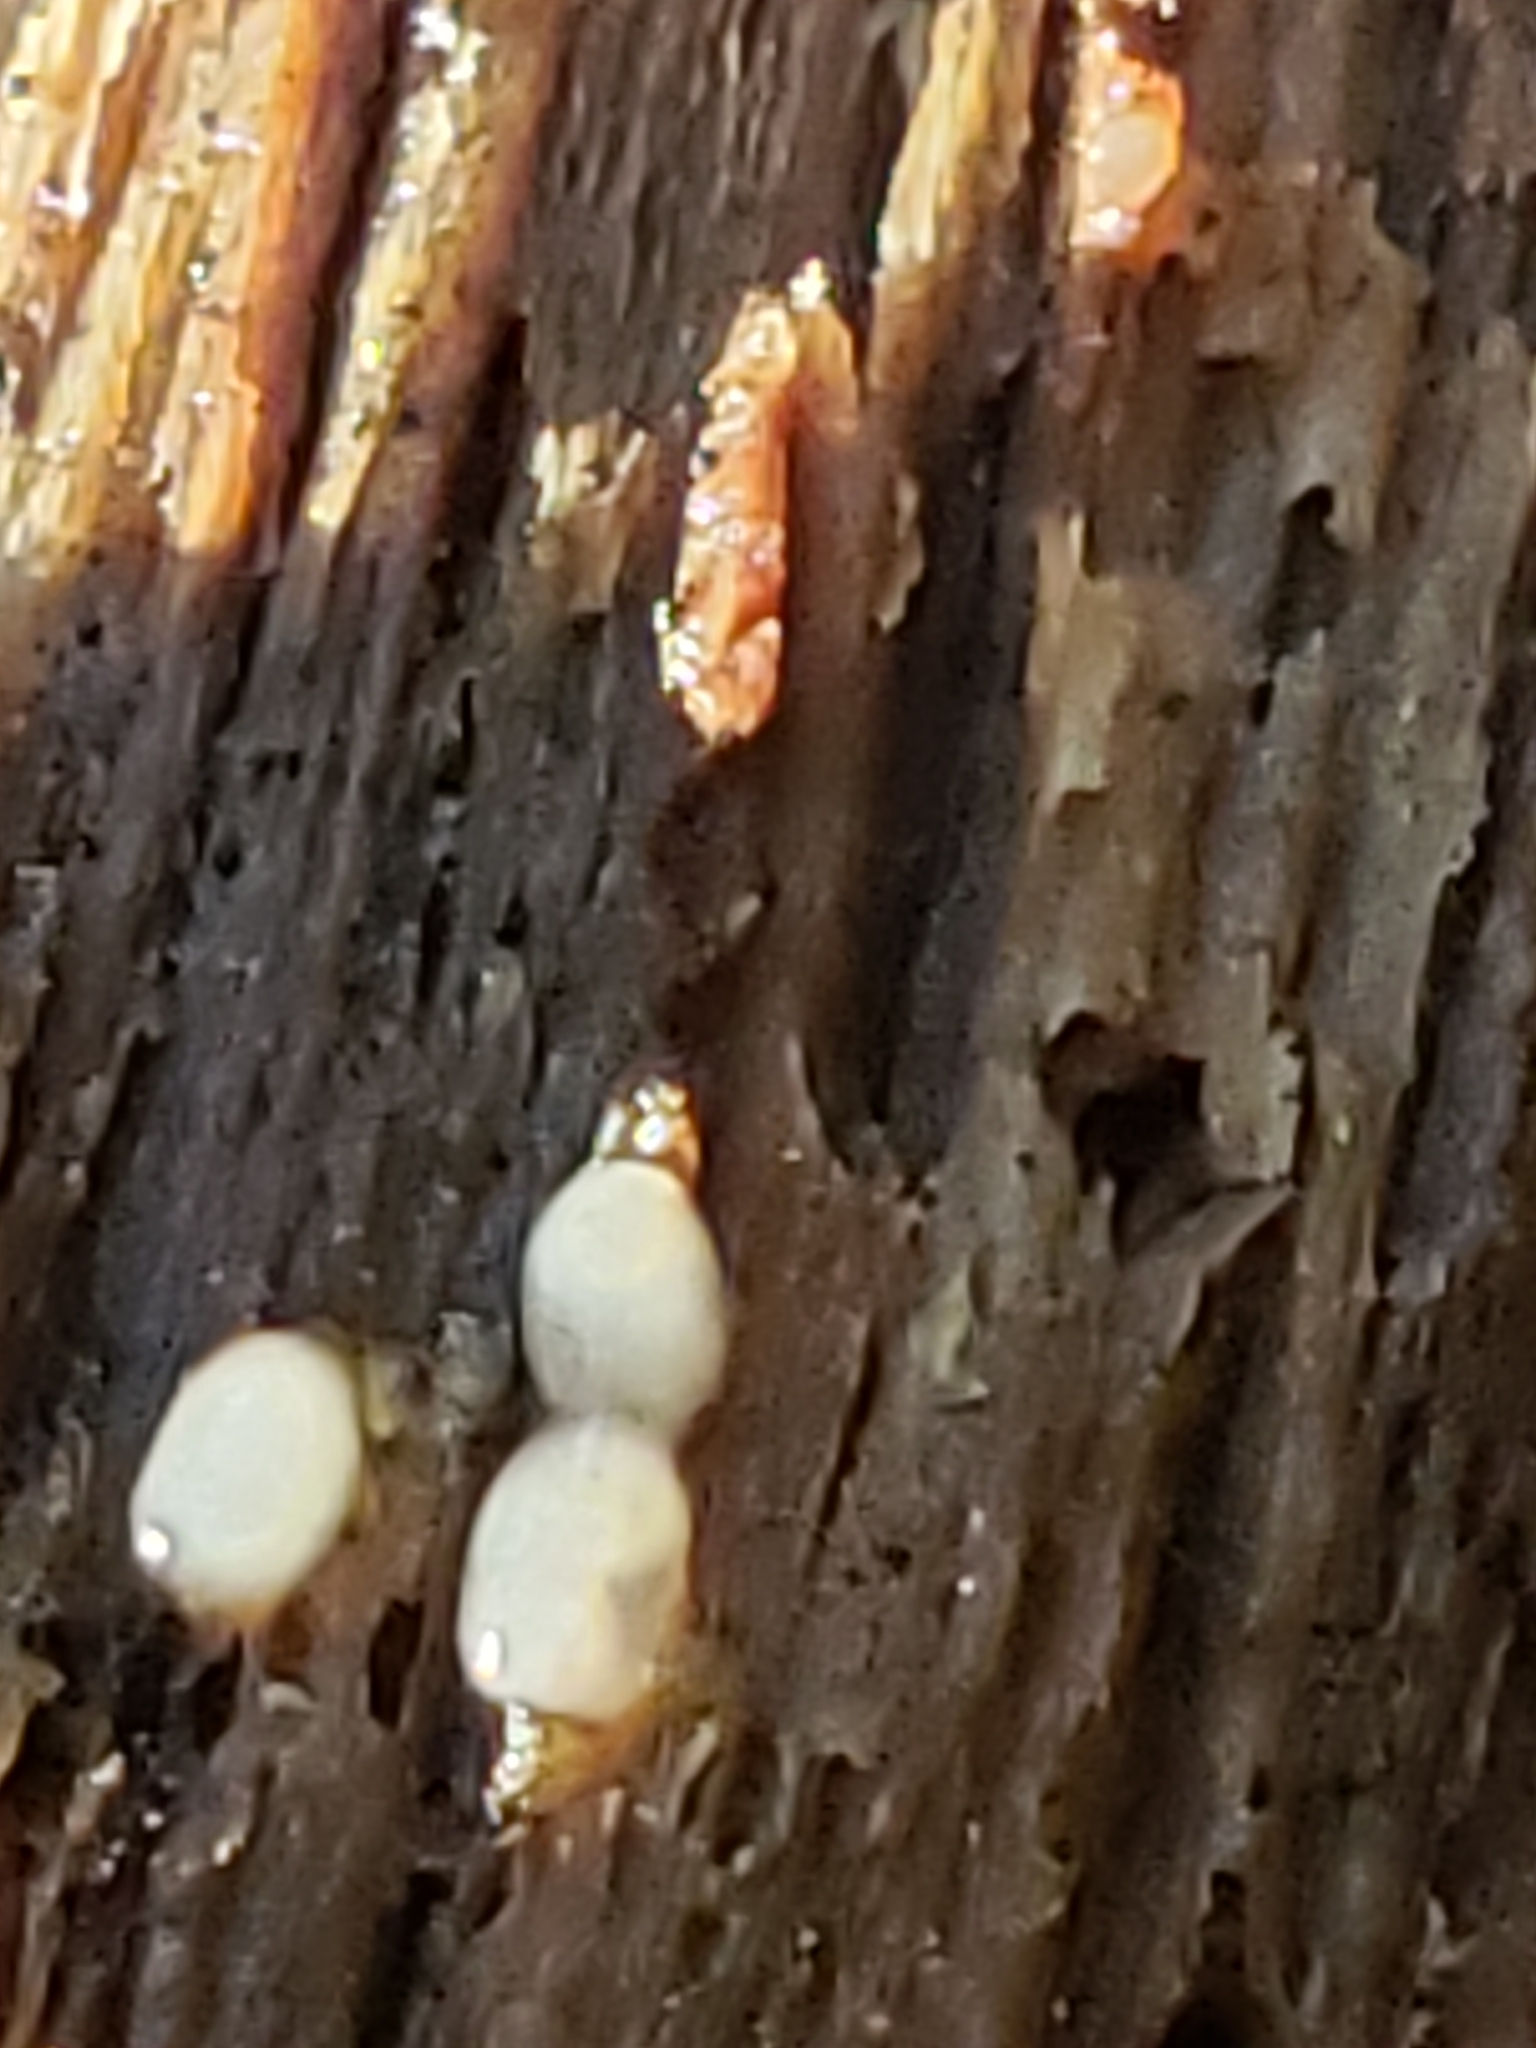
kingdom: Fungi
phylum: Basidiomycota
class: Atractiellomycetes
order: Atractiellales
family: Phleogenaceae
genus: Helicogloea
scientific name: Helicogloea compressa
